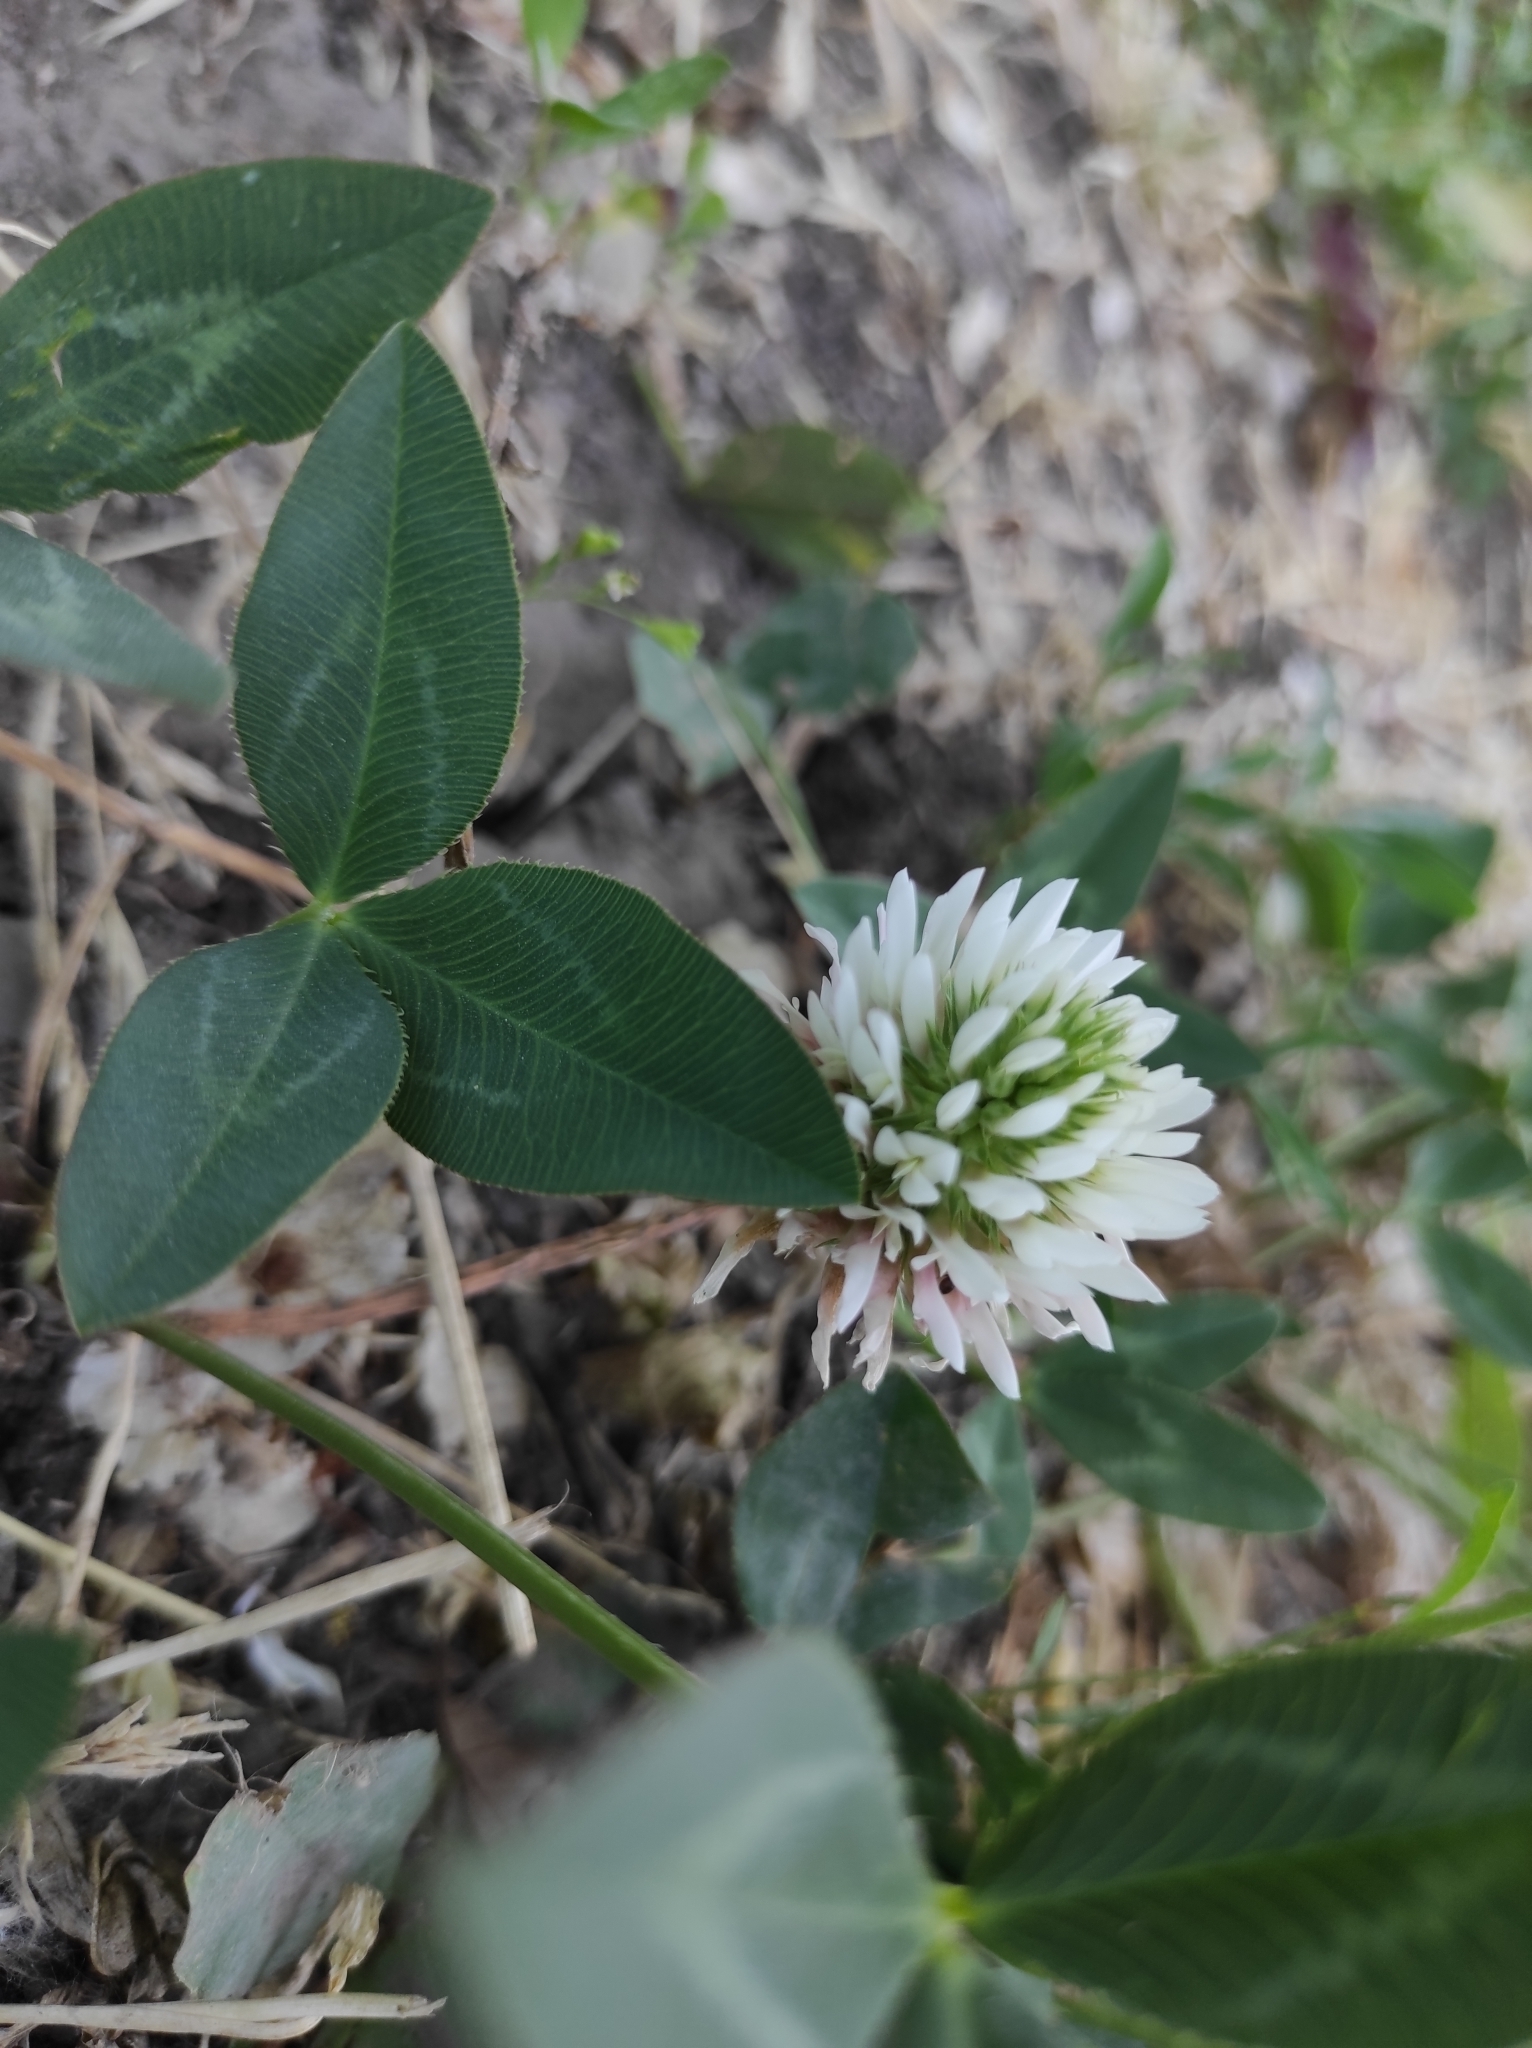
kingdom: Plantae
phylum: Tracheophyta
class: Magnoliopsida
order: Fabales
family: Fabaceae
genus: Trifolium
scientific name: Trifolium ambiguum
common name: Kura clover
